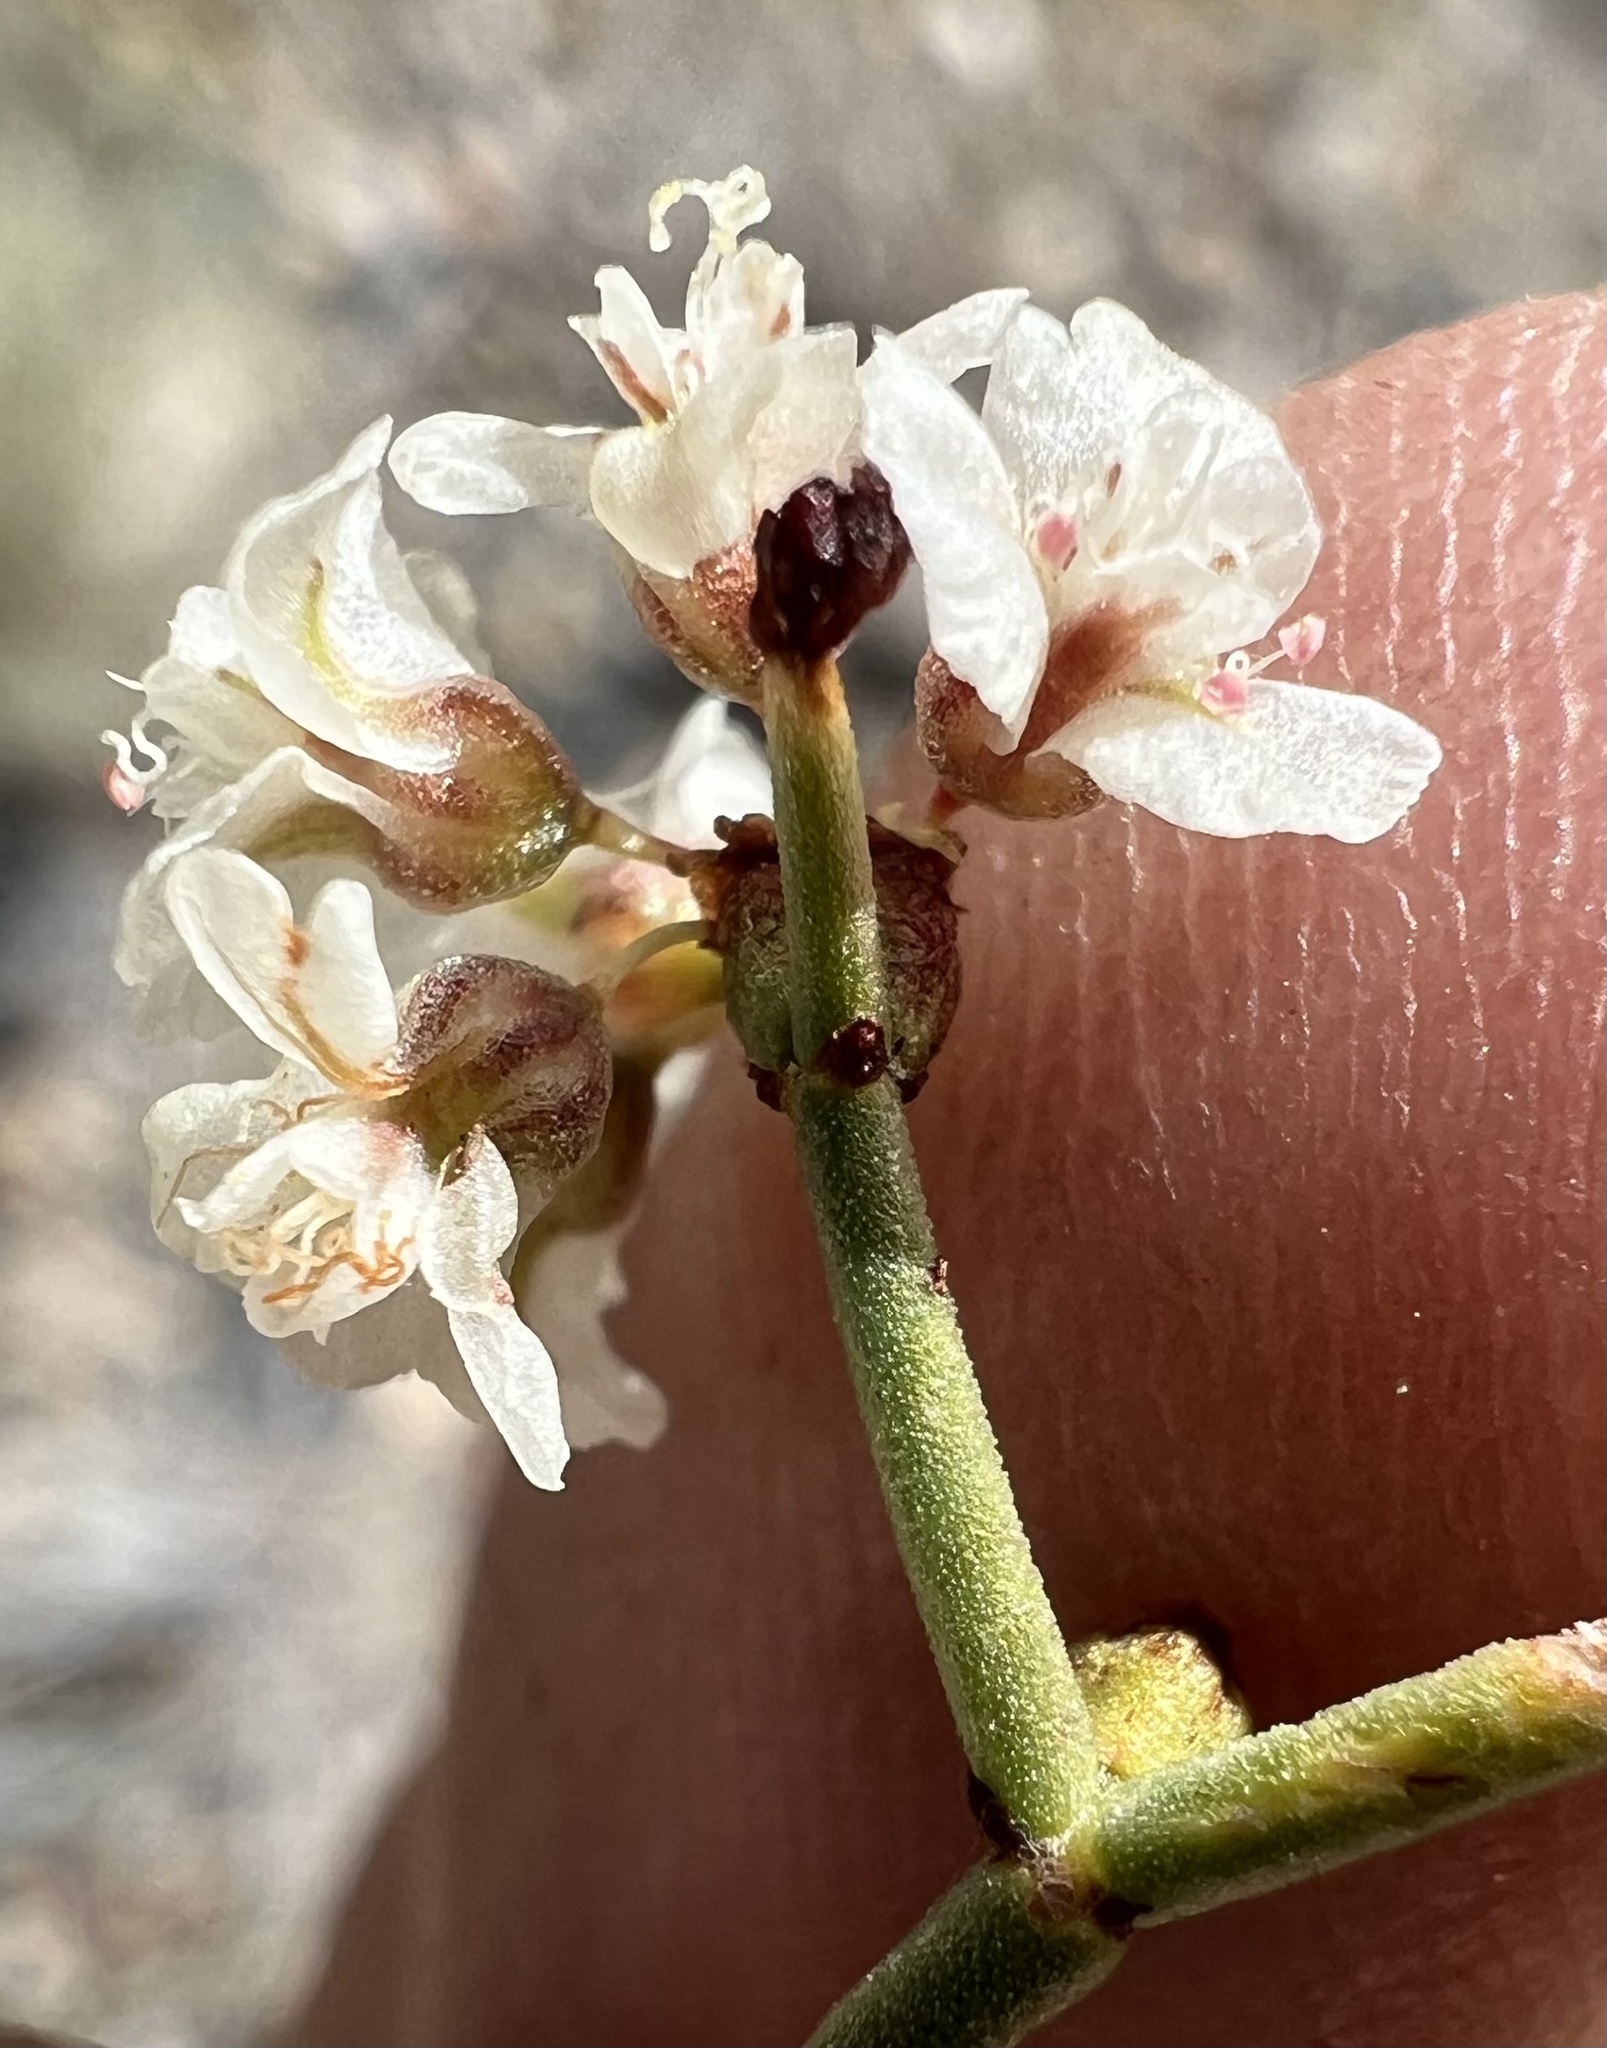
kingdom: Plantae
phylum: Tracheophyta
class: Magnoliopsida
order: Caryophyllales
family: Polygonaceae
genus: Eriogonum
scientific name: Eriogonum heermannii
